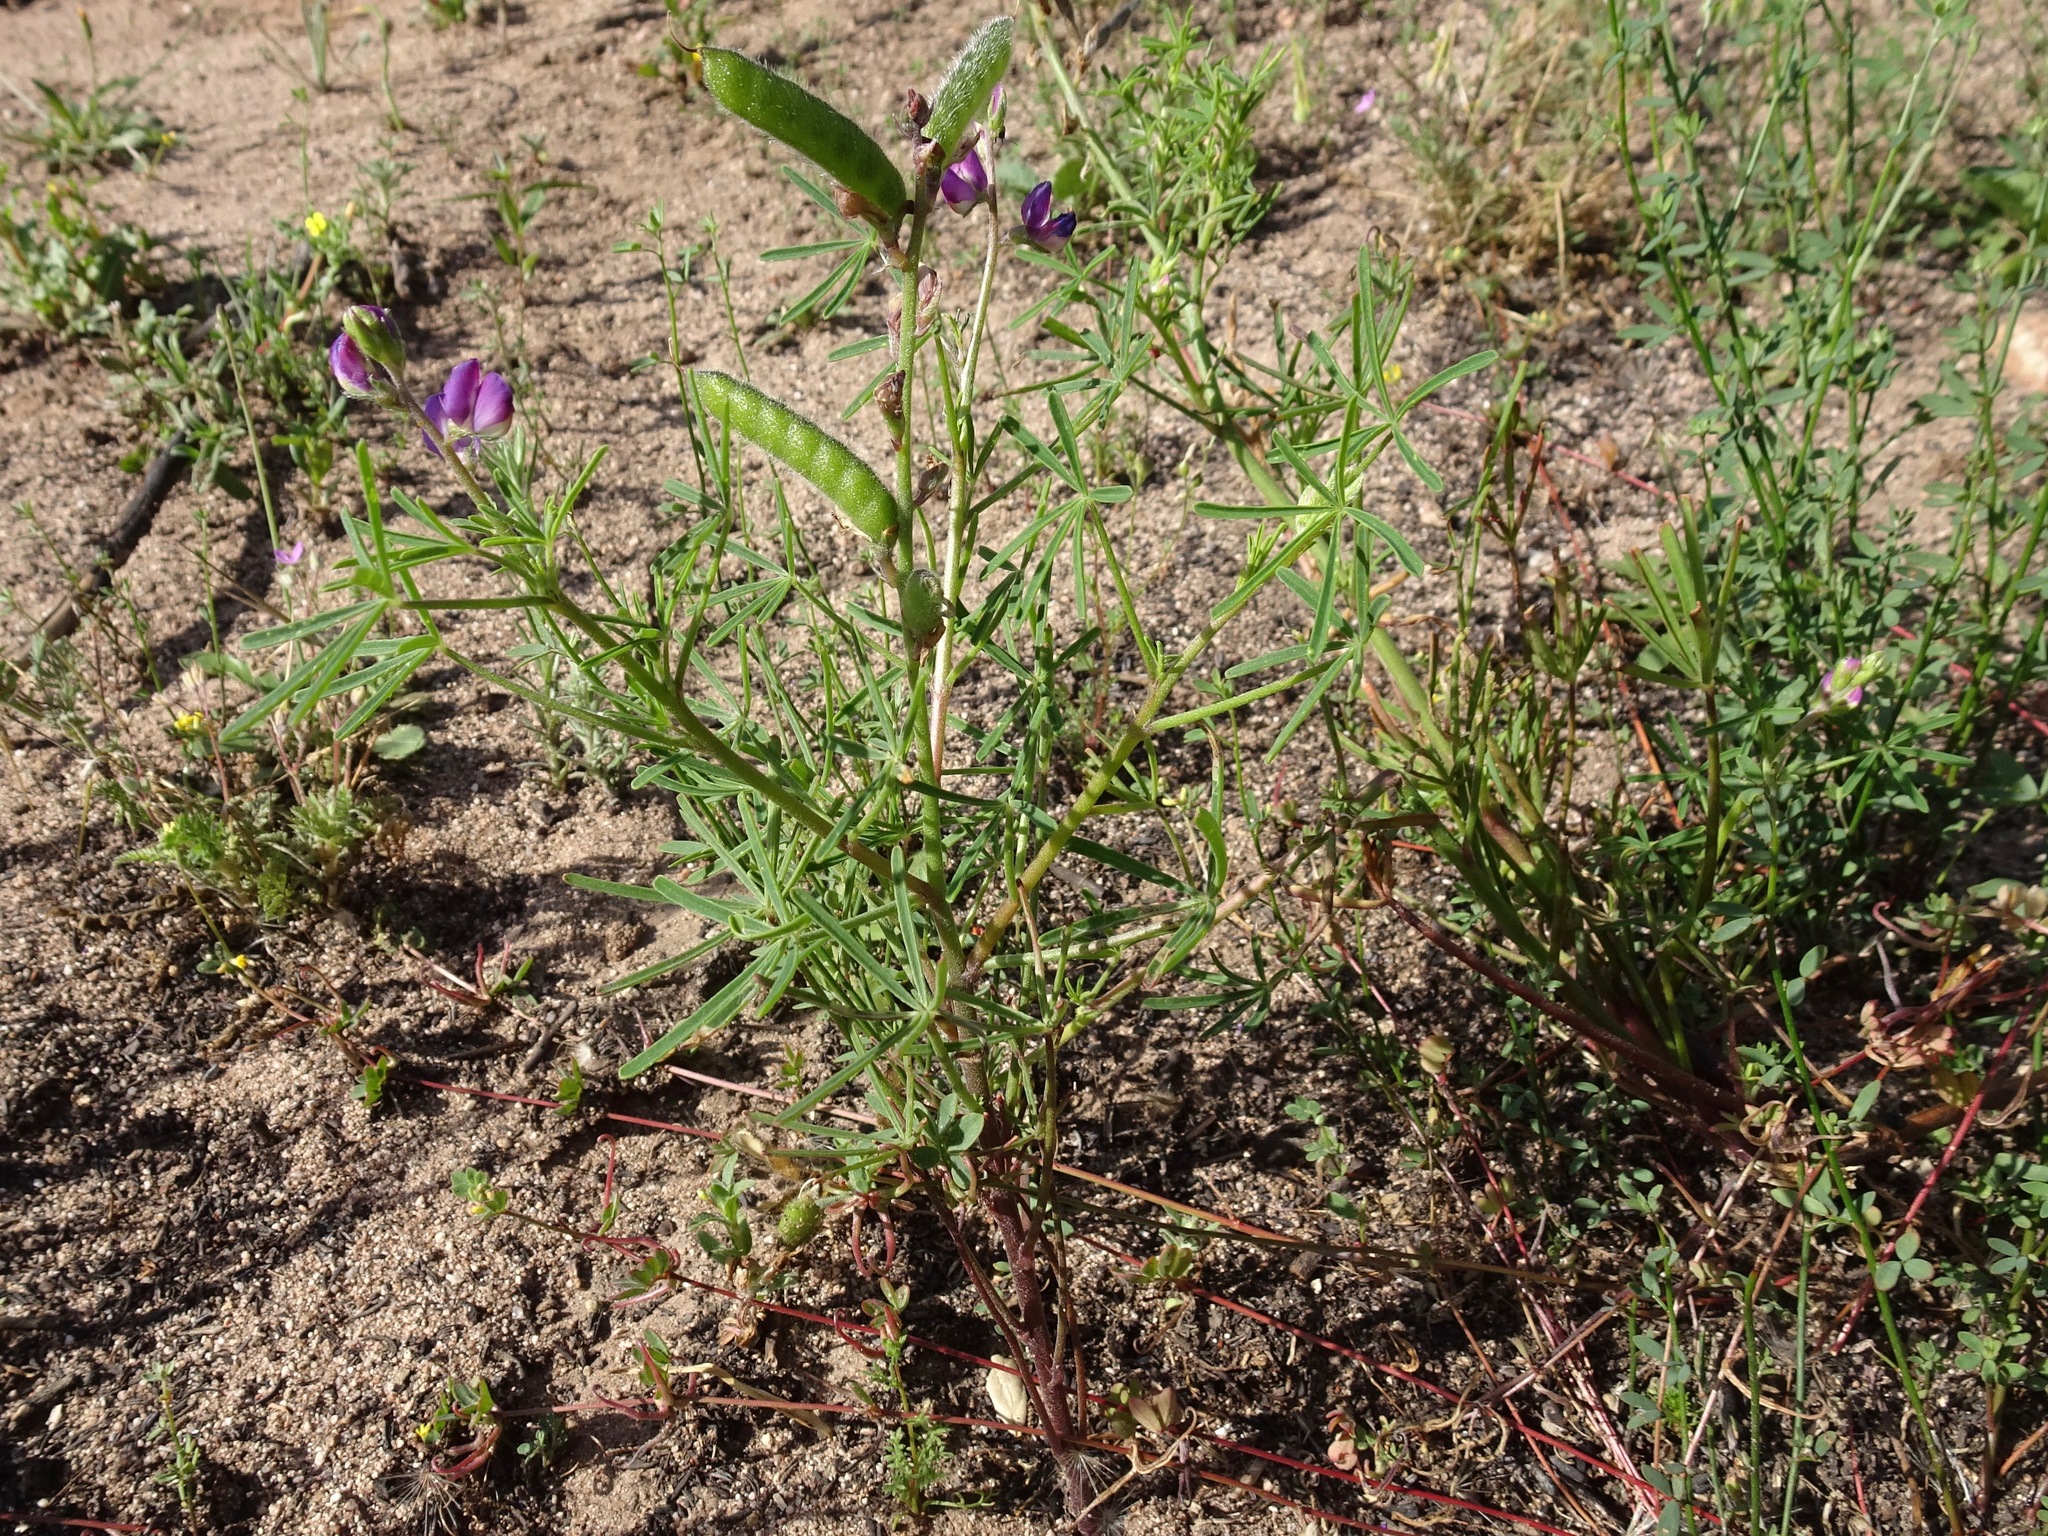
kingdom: Plantae
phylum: Tracheophyta
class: Magnoliopsida
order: Fabales
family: Fabaceae
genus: Lupinus
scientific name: Lupinus truncatus
